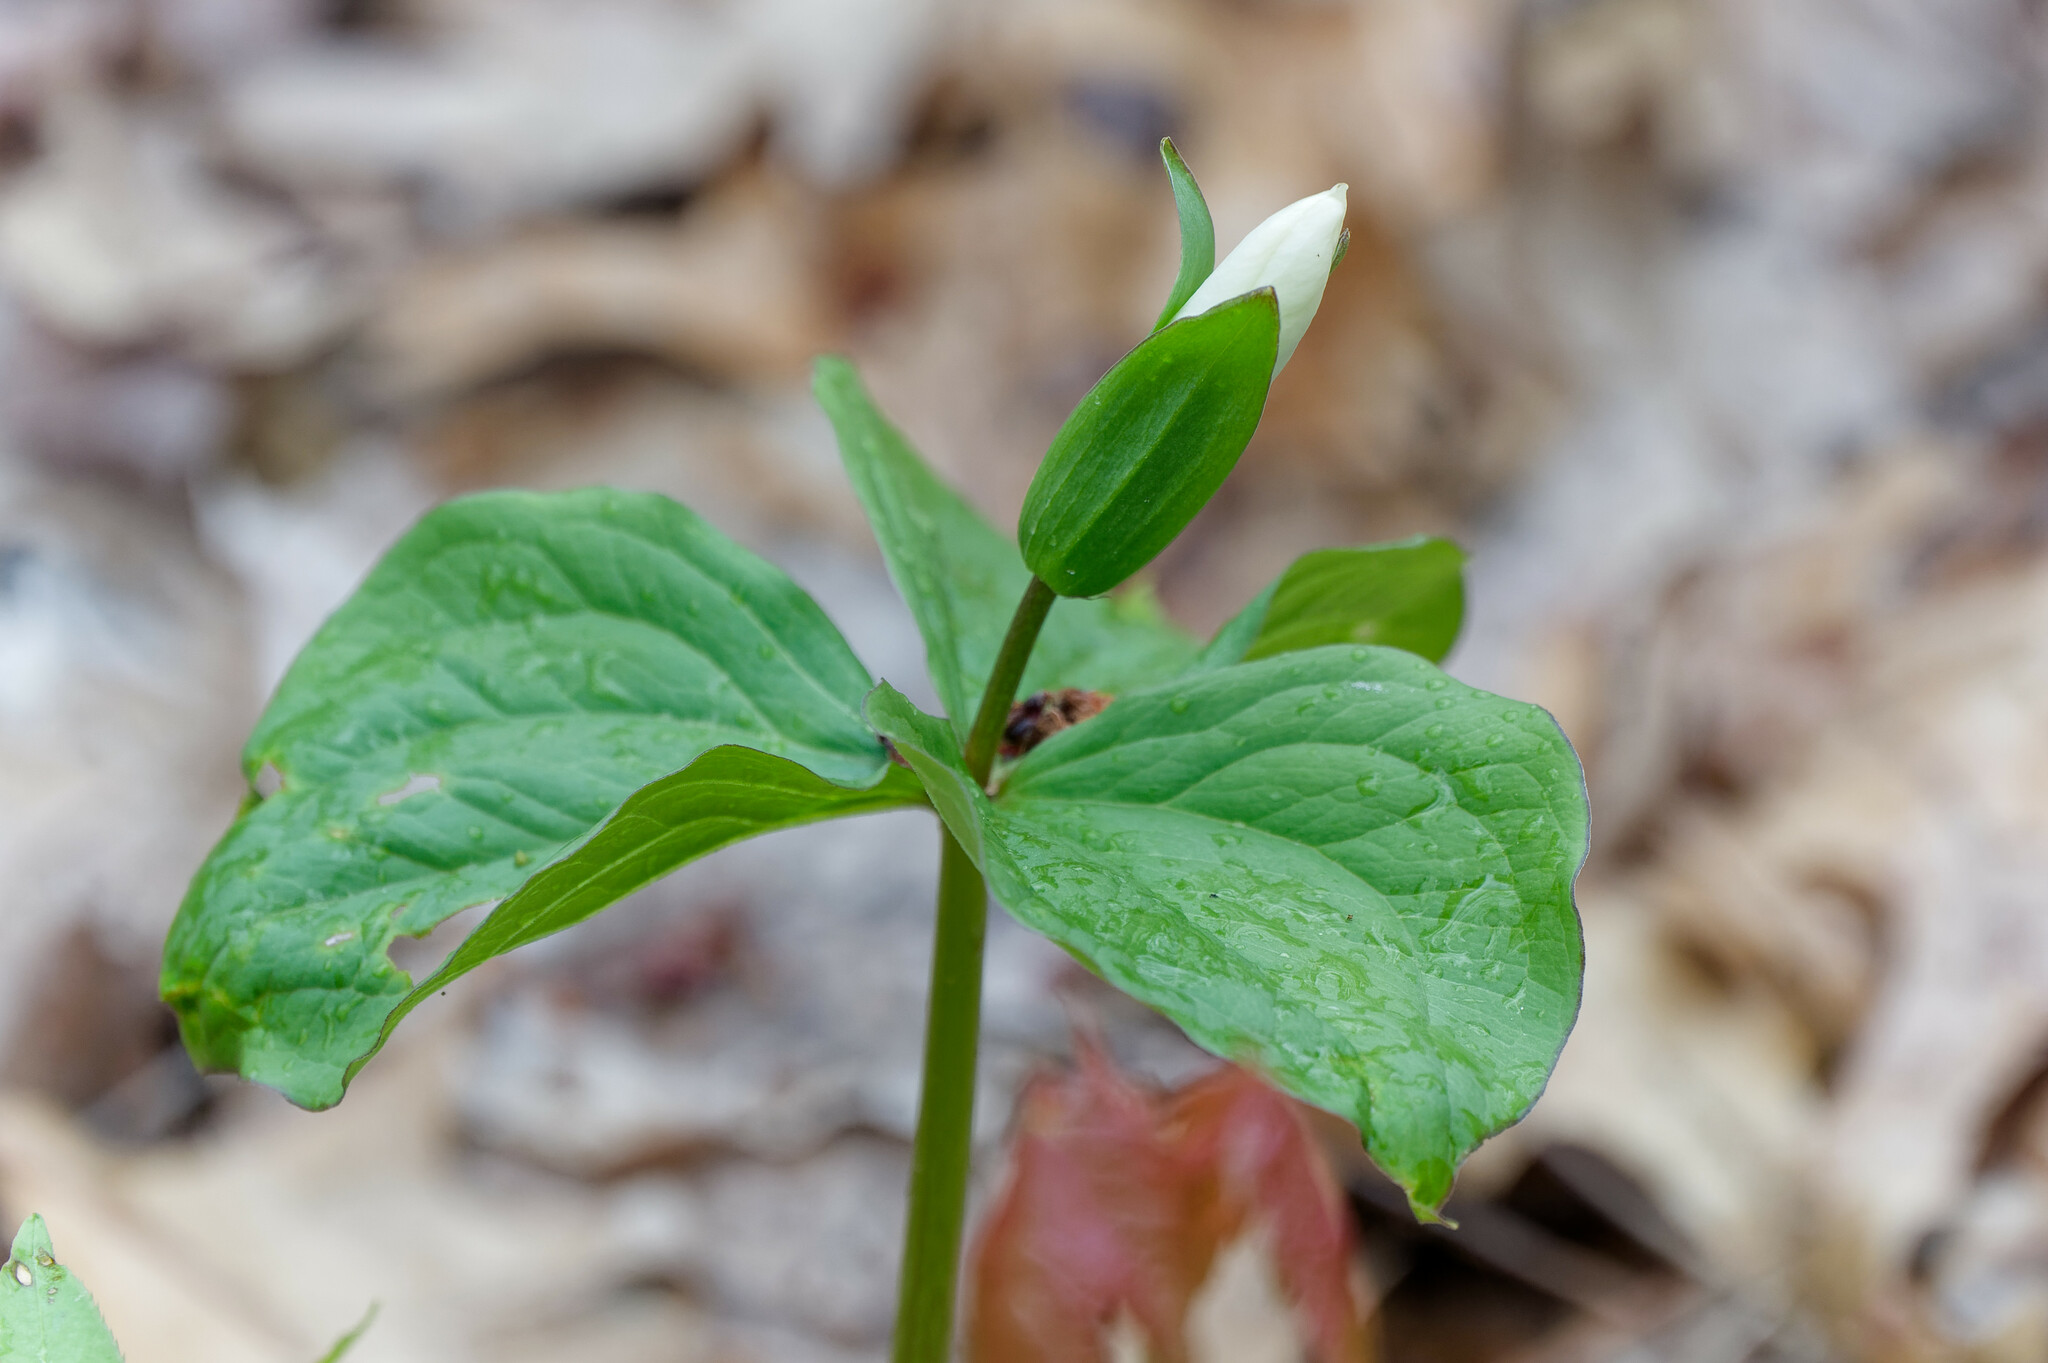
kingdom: Plantae
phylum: Tracheophyta
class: Liliopsida
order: Liliales
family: Melanthiaceae
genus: Trillium
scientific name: Trillium grandiflorum
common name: Great white trillium
